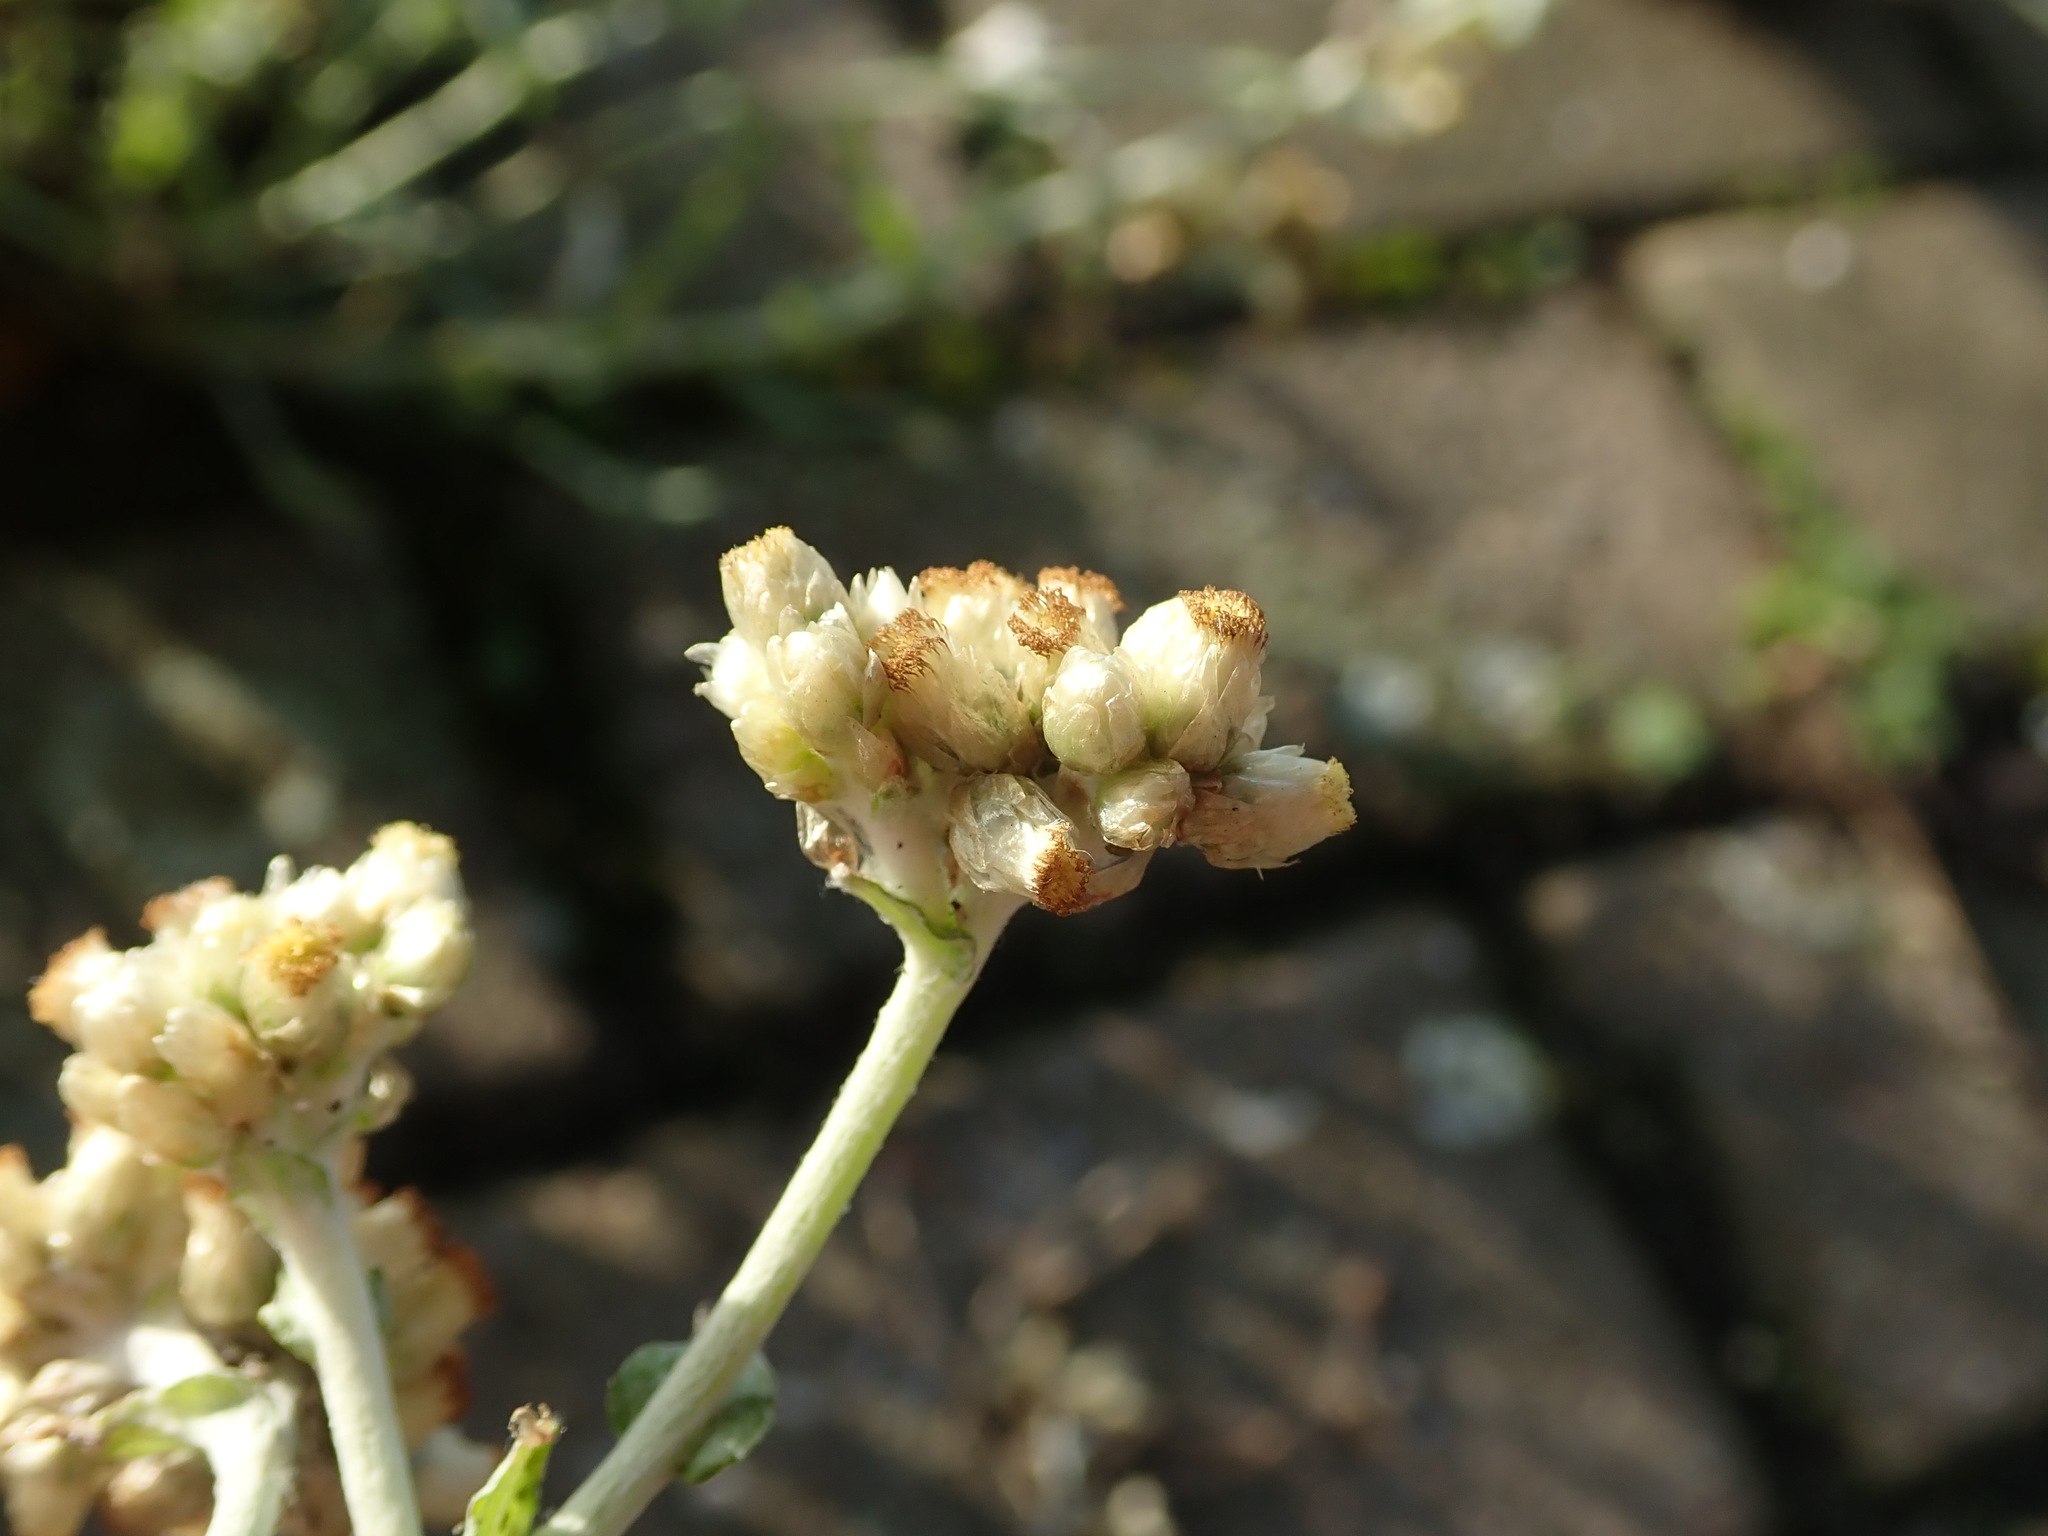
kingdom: Plantae
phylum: Tracheophyta
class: Magnoliopsida
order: Asterales
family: Asteraceae
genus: Helichrysum
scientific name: Helichrysum luteoalbum
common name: Daisy
